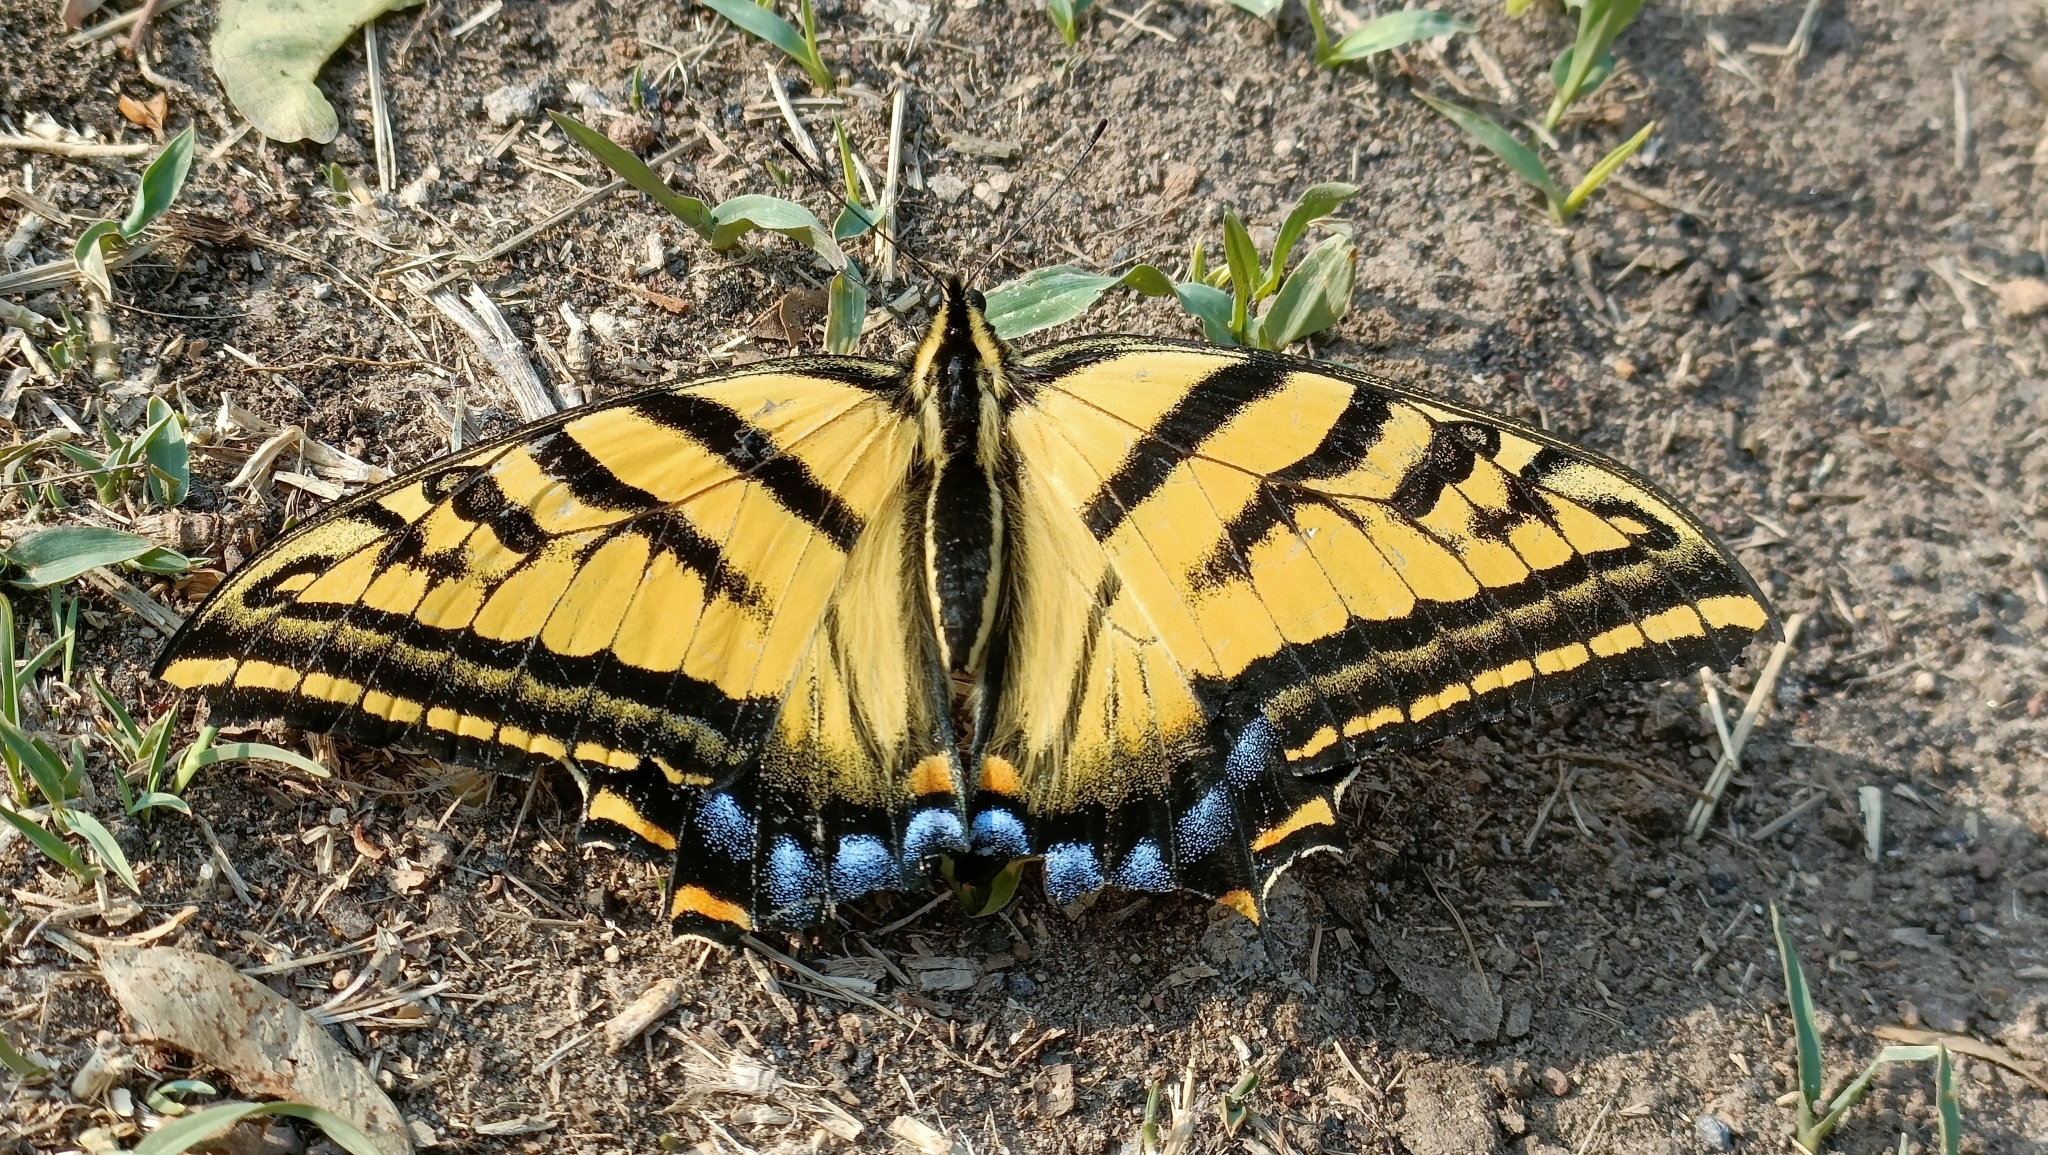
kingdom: Animalia
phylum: Arthropoda
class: Insecta
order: Lepidoptera
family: Papilionidae
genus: Papilio
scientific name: Papilio multicaudata
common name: Two-tailed tiger swallowtail
